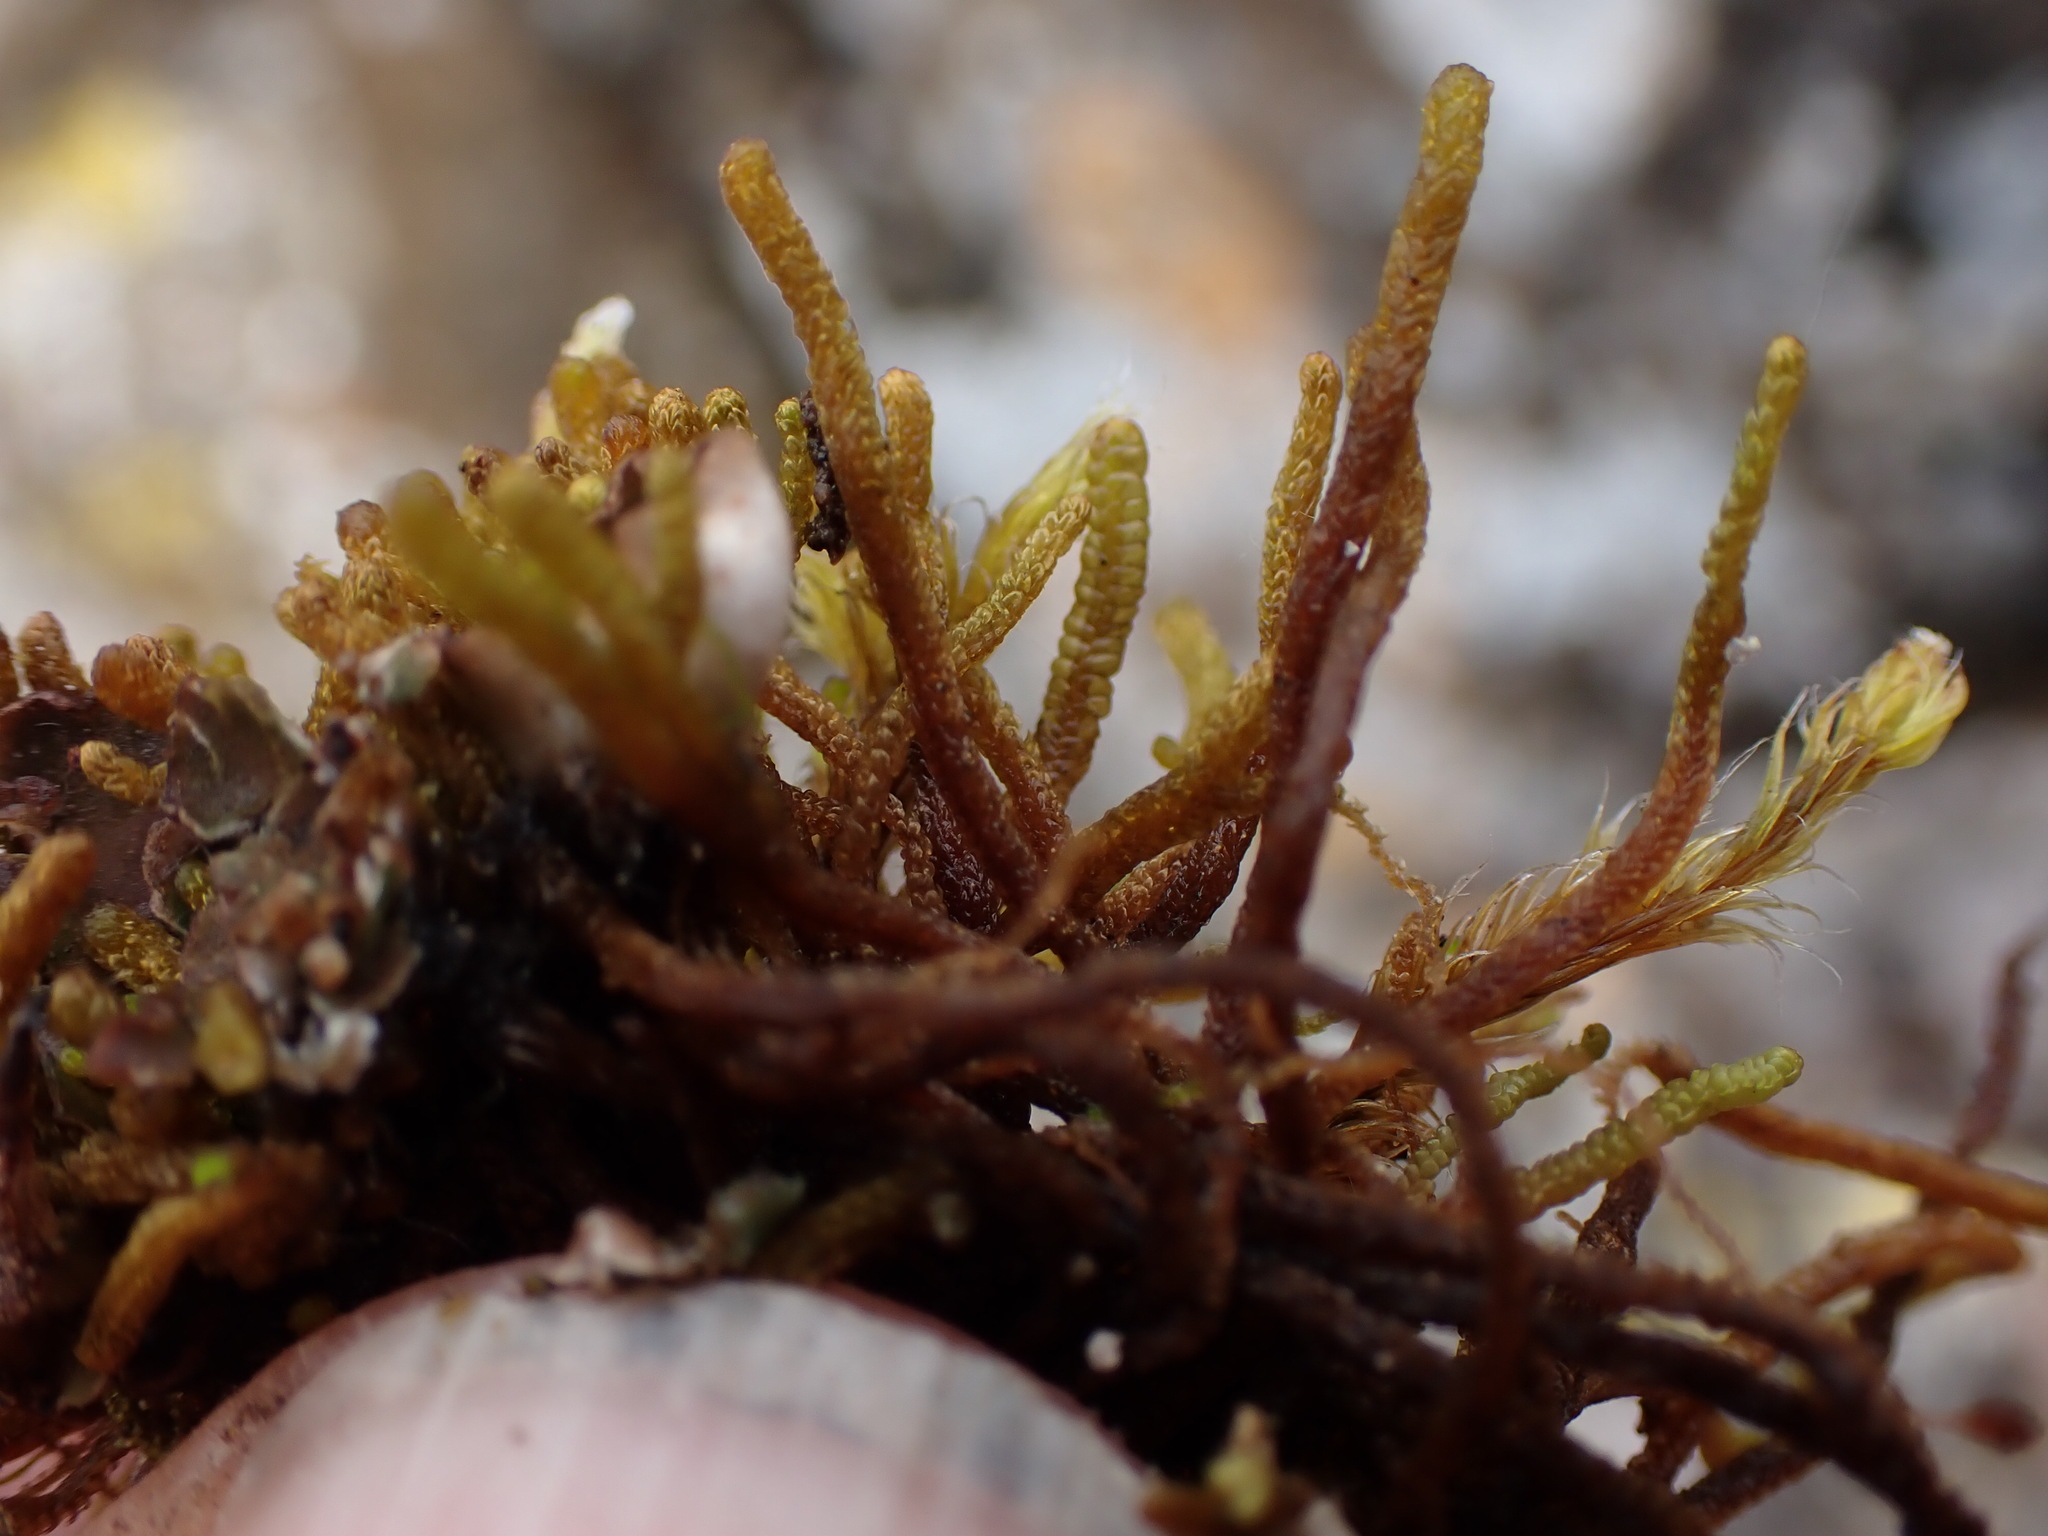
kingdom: Plantae
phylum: Marchantiophyta
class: Jungermanniopsida
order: Jungermanniales
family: Anastrophyllaceae
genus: Tetralophozia
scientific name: Tetralophozia setiformis
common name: Monster pawwort
